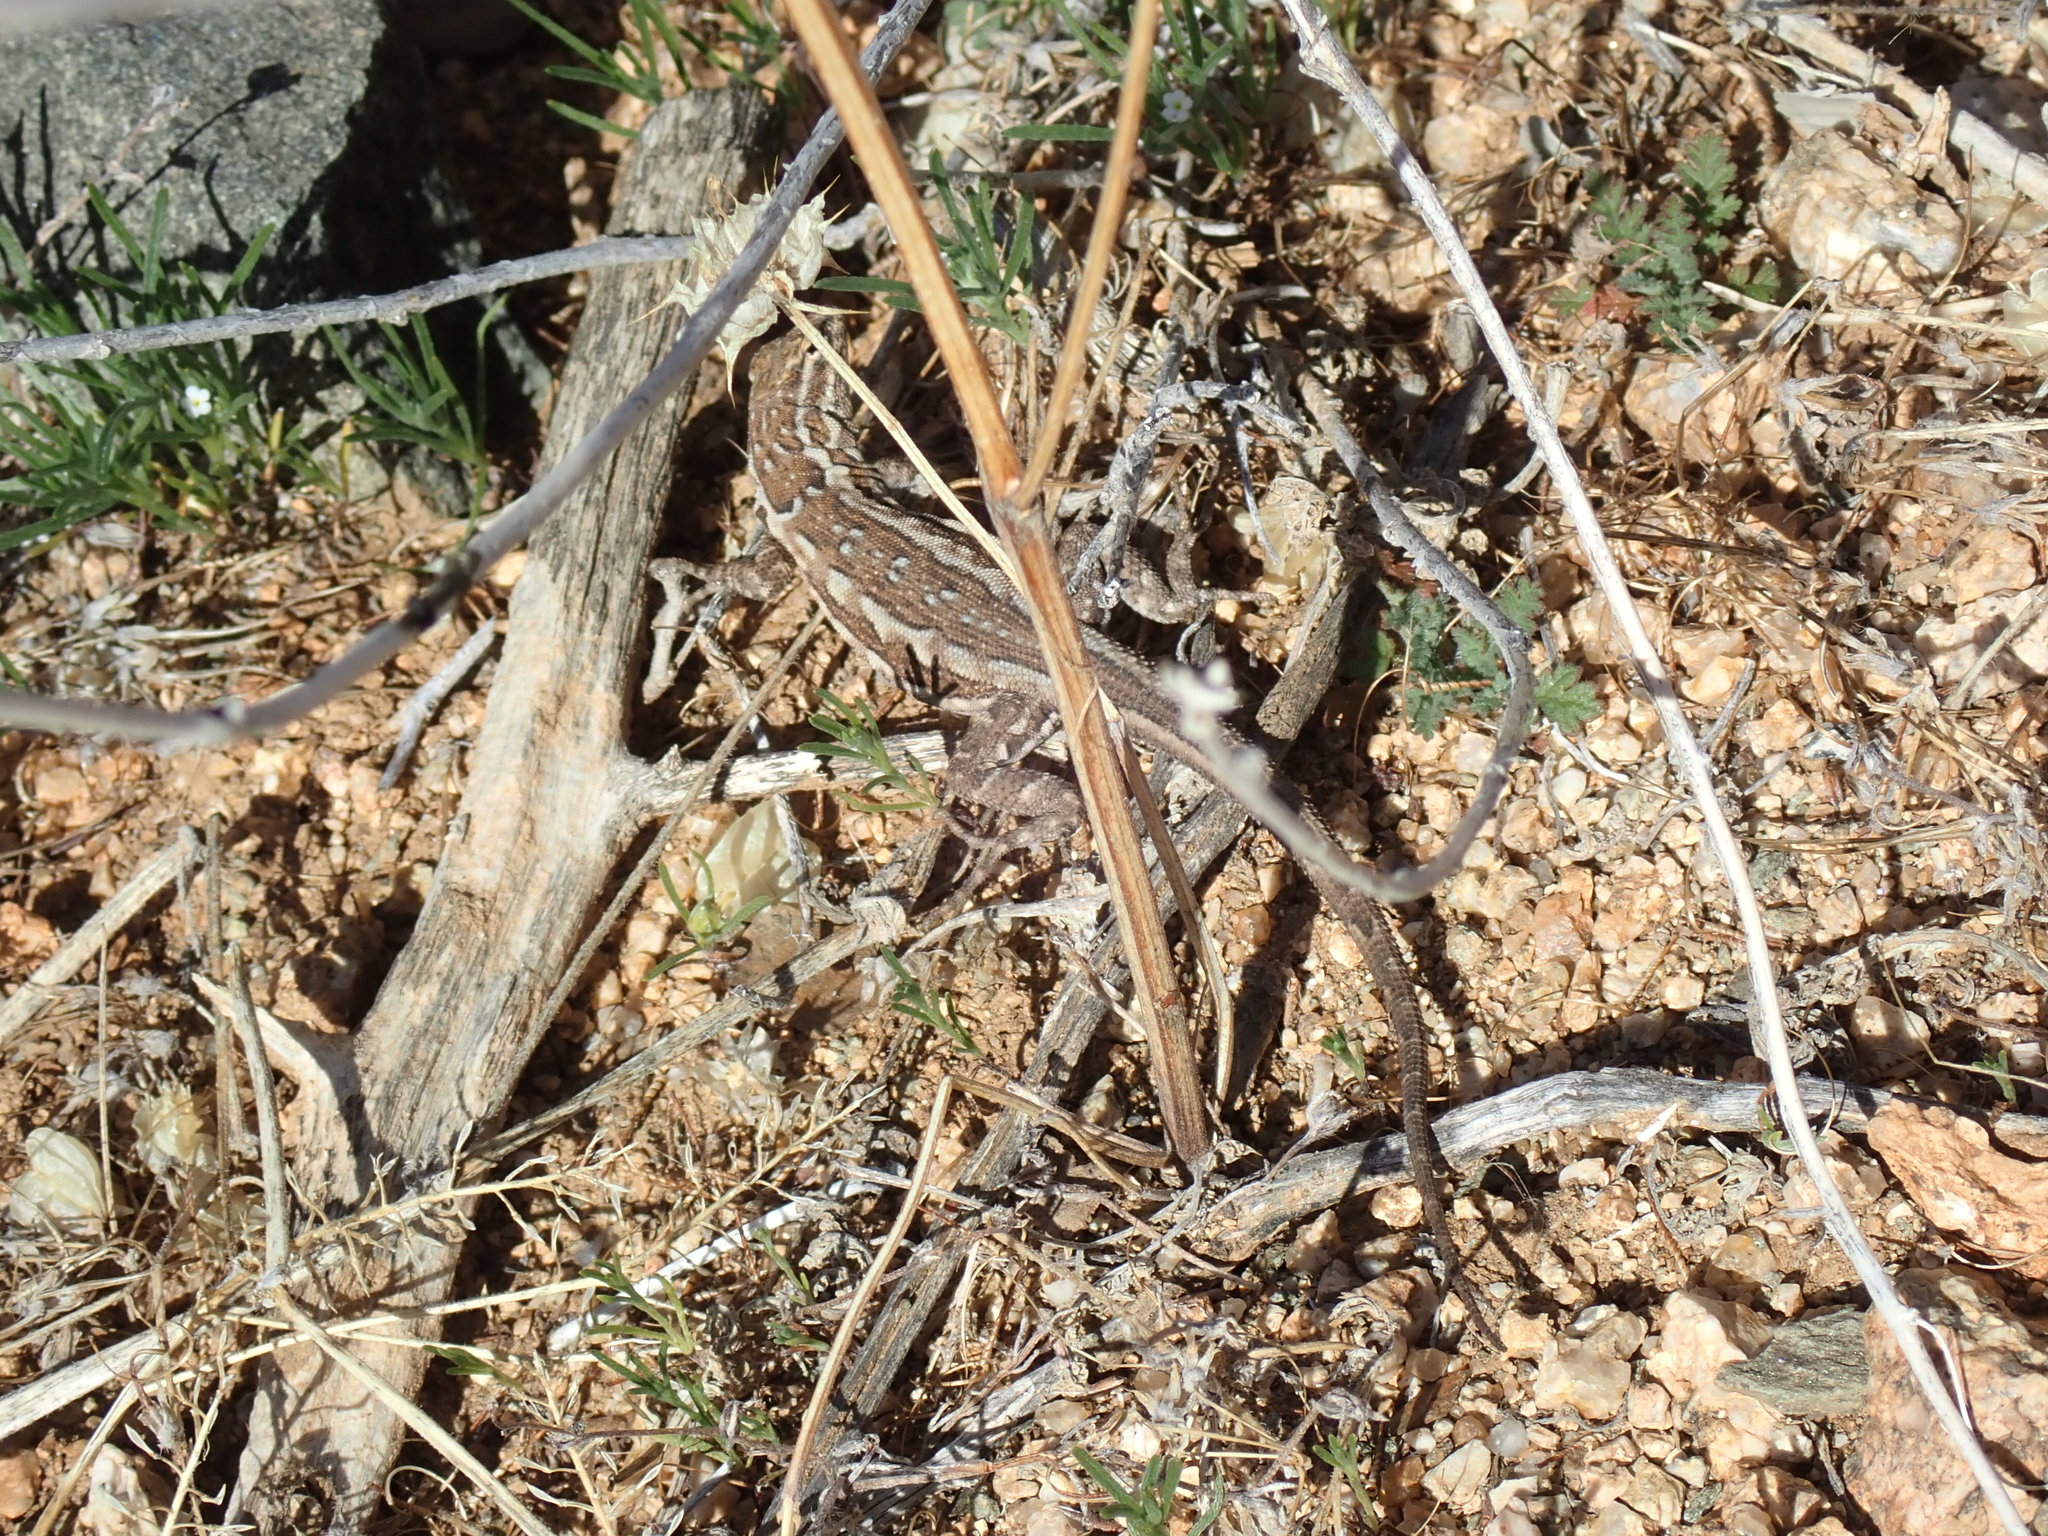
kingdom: Animalia
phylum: Chordata
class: Squamata
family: Phrynosomatidae
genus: Uta
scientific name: Uta stansburiana
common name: Side-blotched lizard
